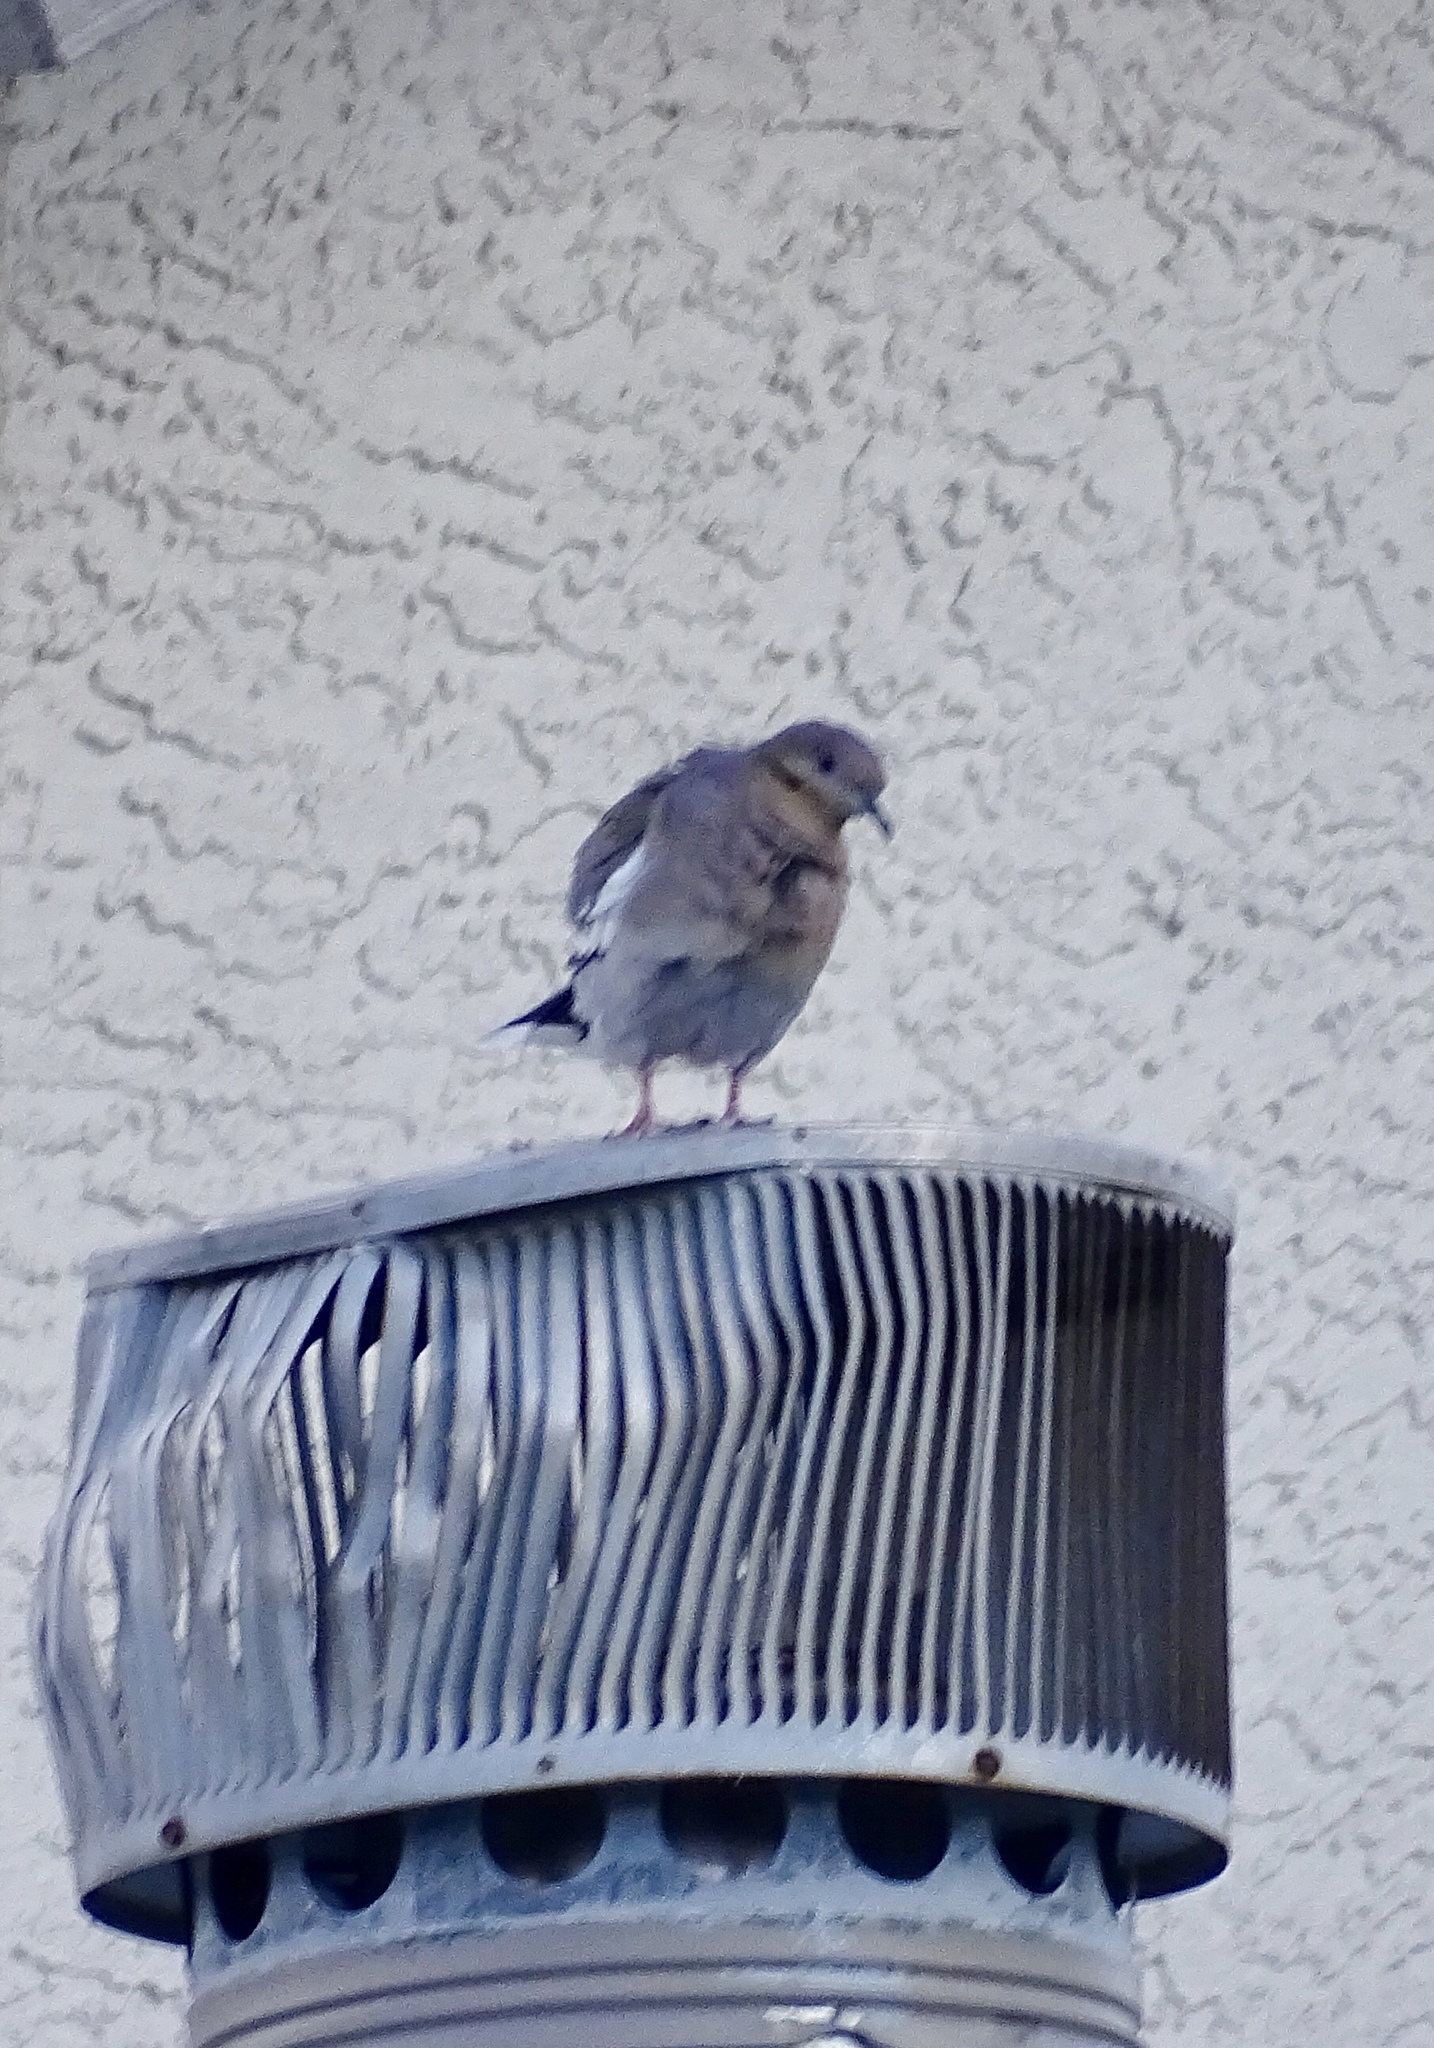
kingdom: Animalia
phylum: Chordata
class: Aves
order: Columbiformes
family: Columbidae
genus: Zenaida
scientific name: Zenaida asiatica
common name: White-winged dove
